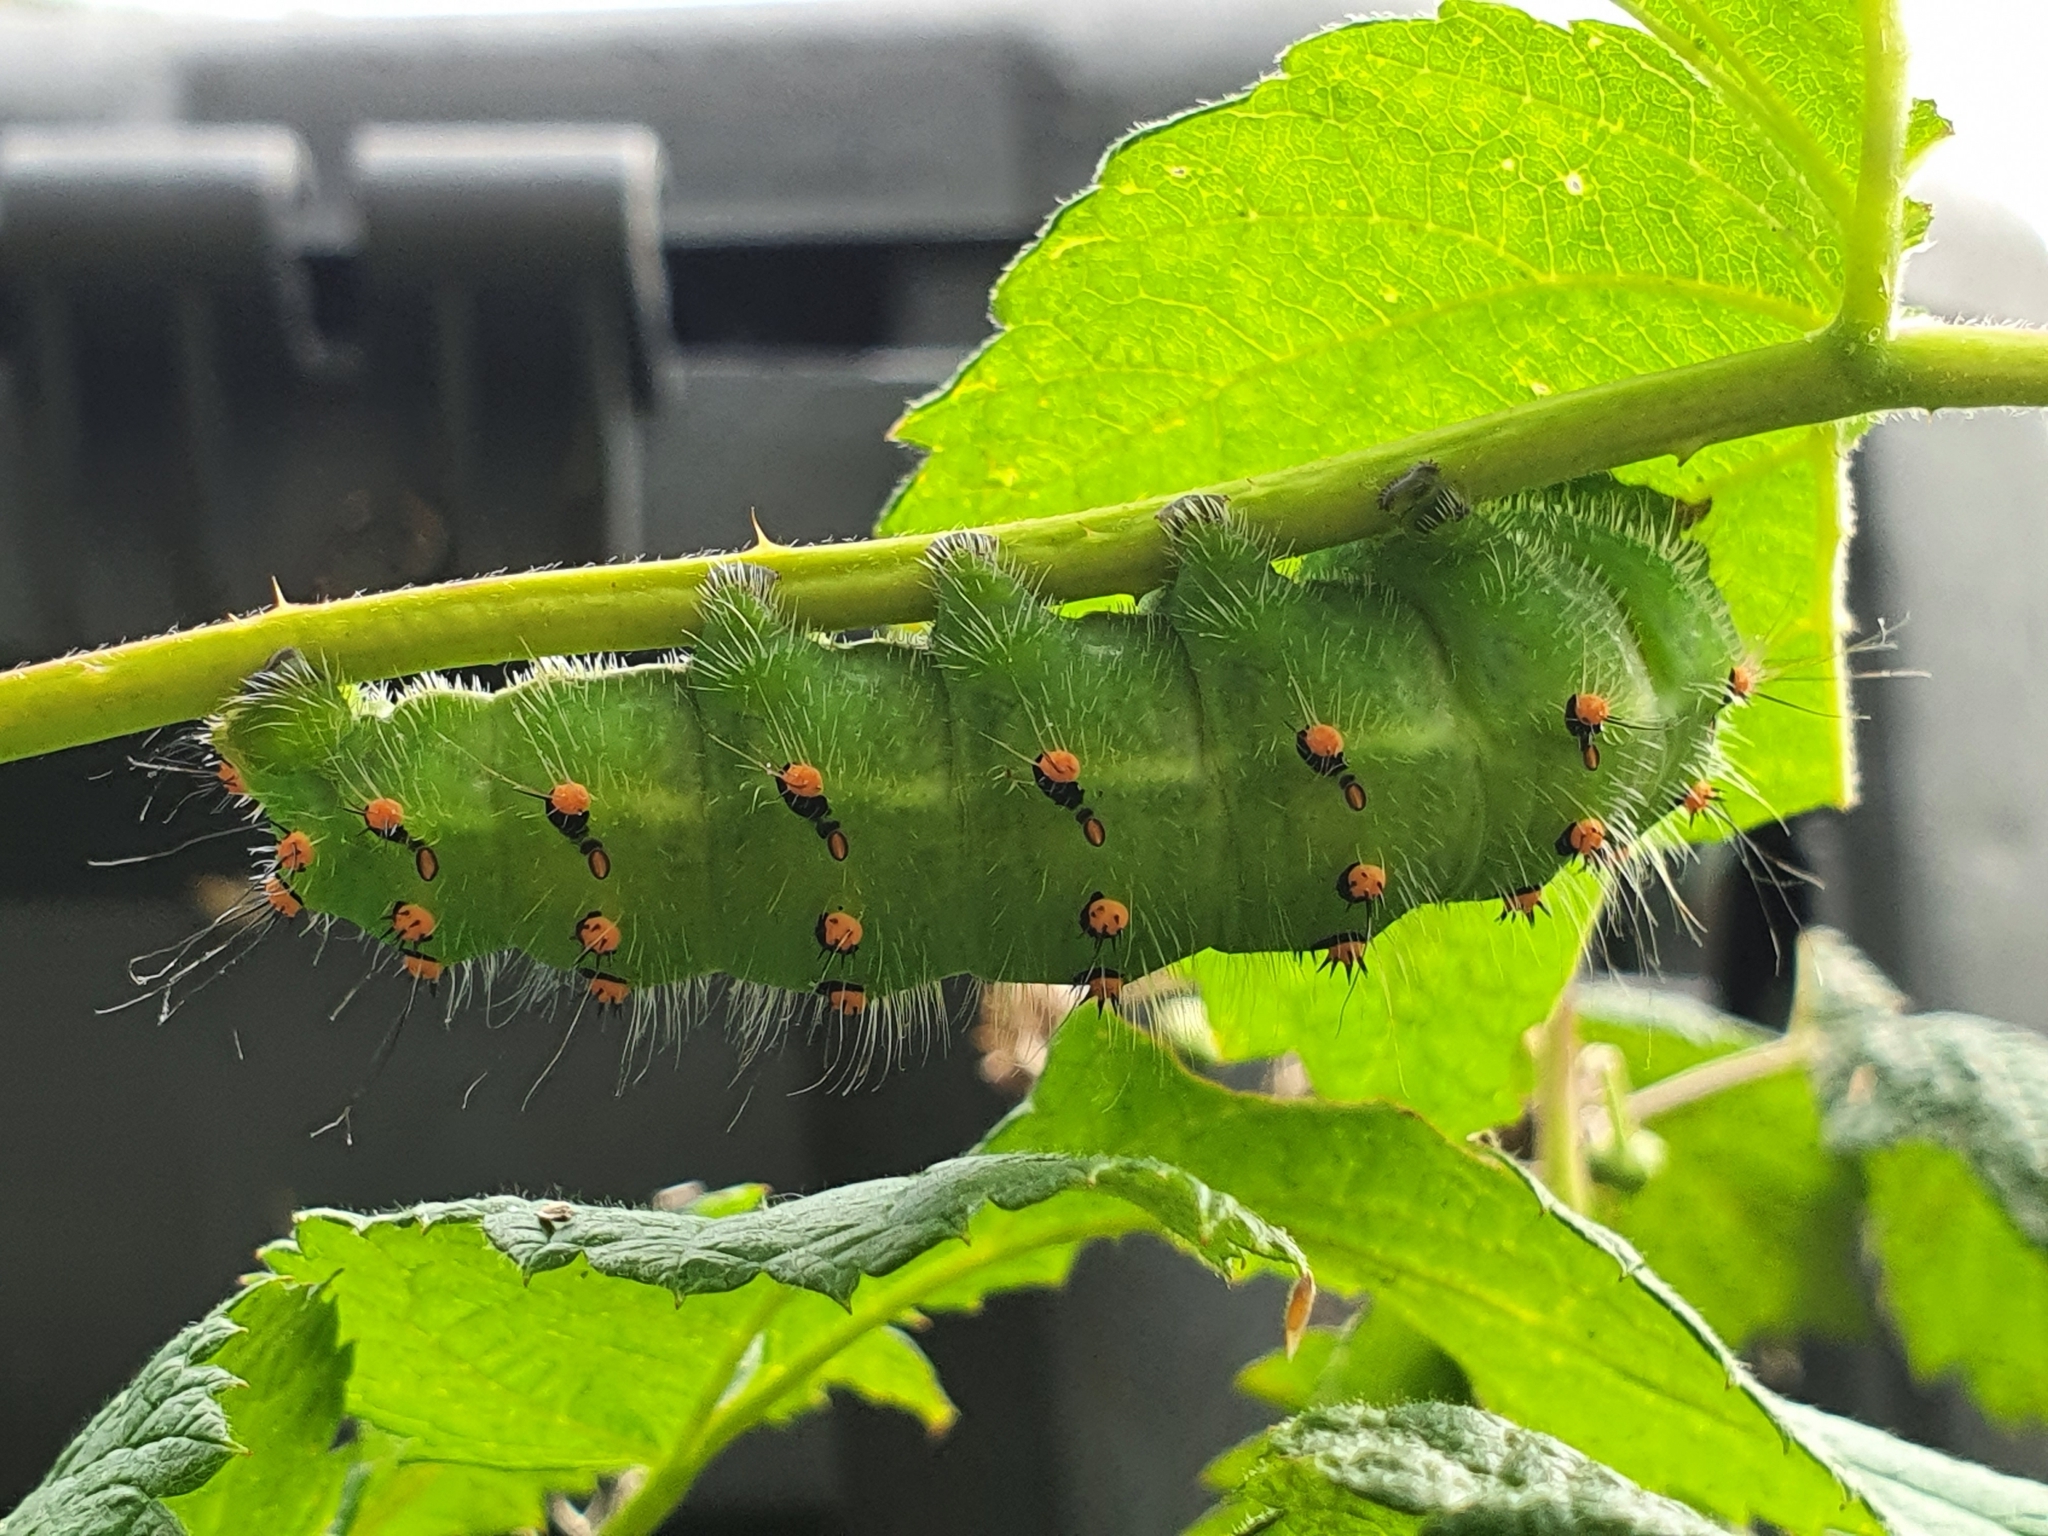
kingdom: Animalia
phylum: Arthropoda
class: Insecta
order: Lepidoptera
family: Saturniidae
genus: Saturnia
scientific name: Saturnia pavonia
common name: Emperor moth
